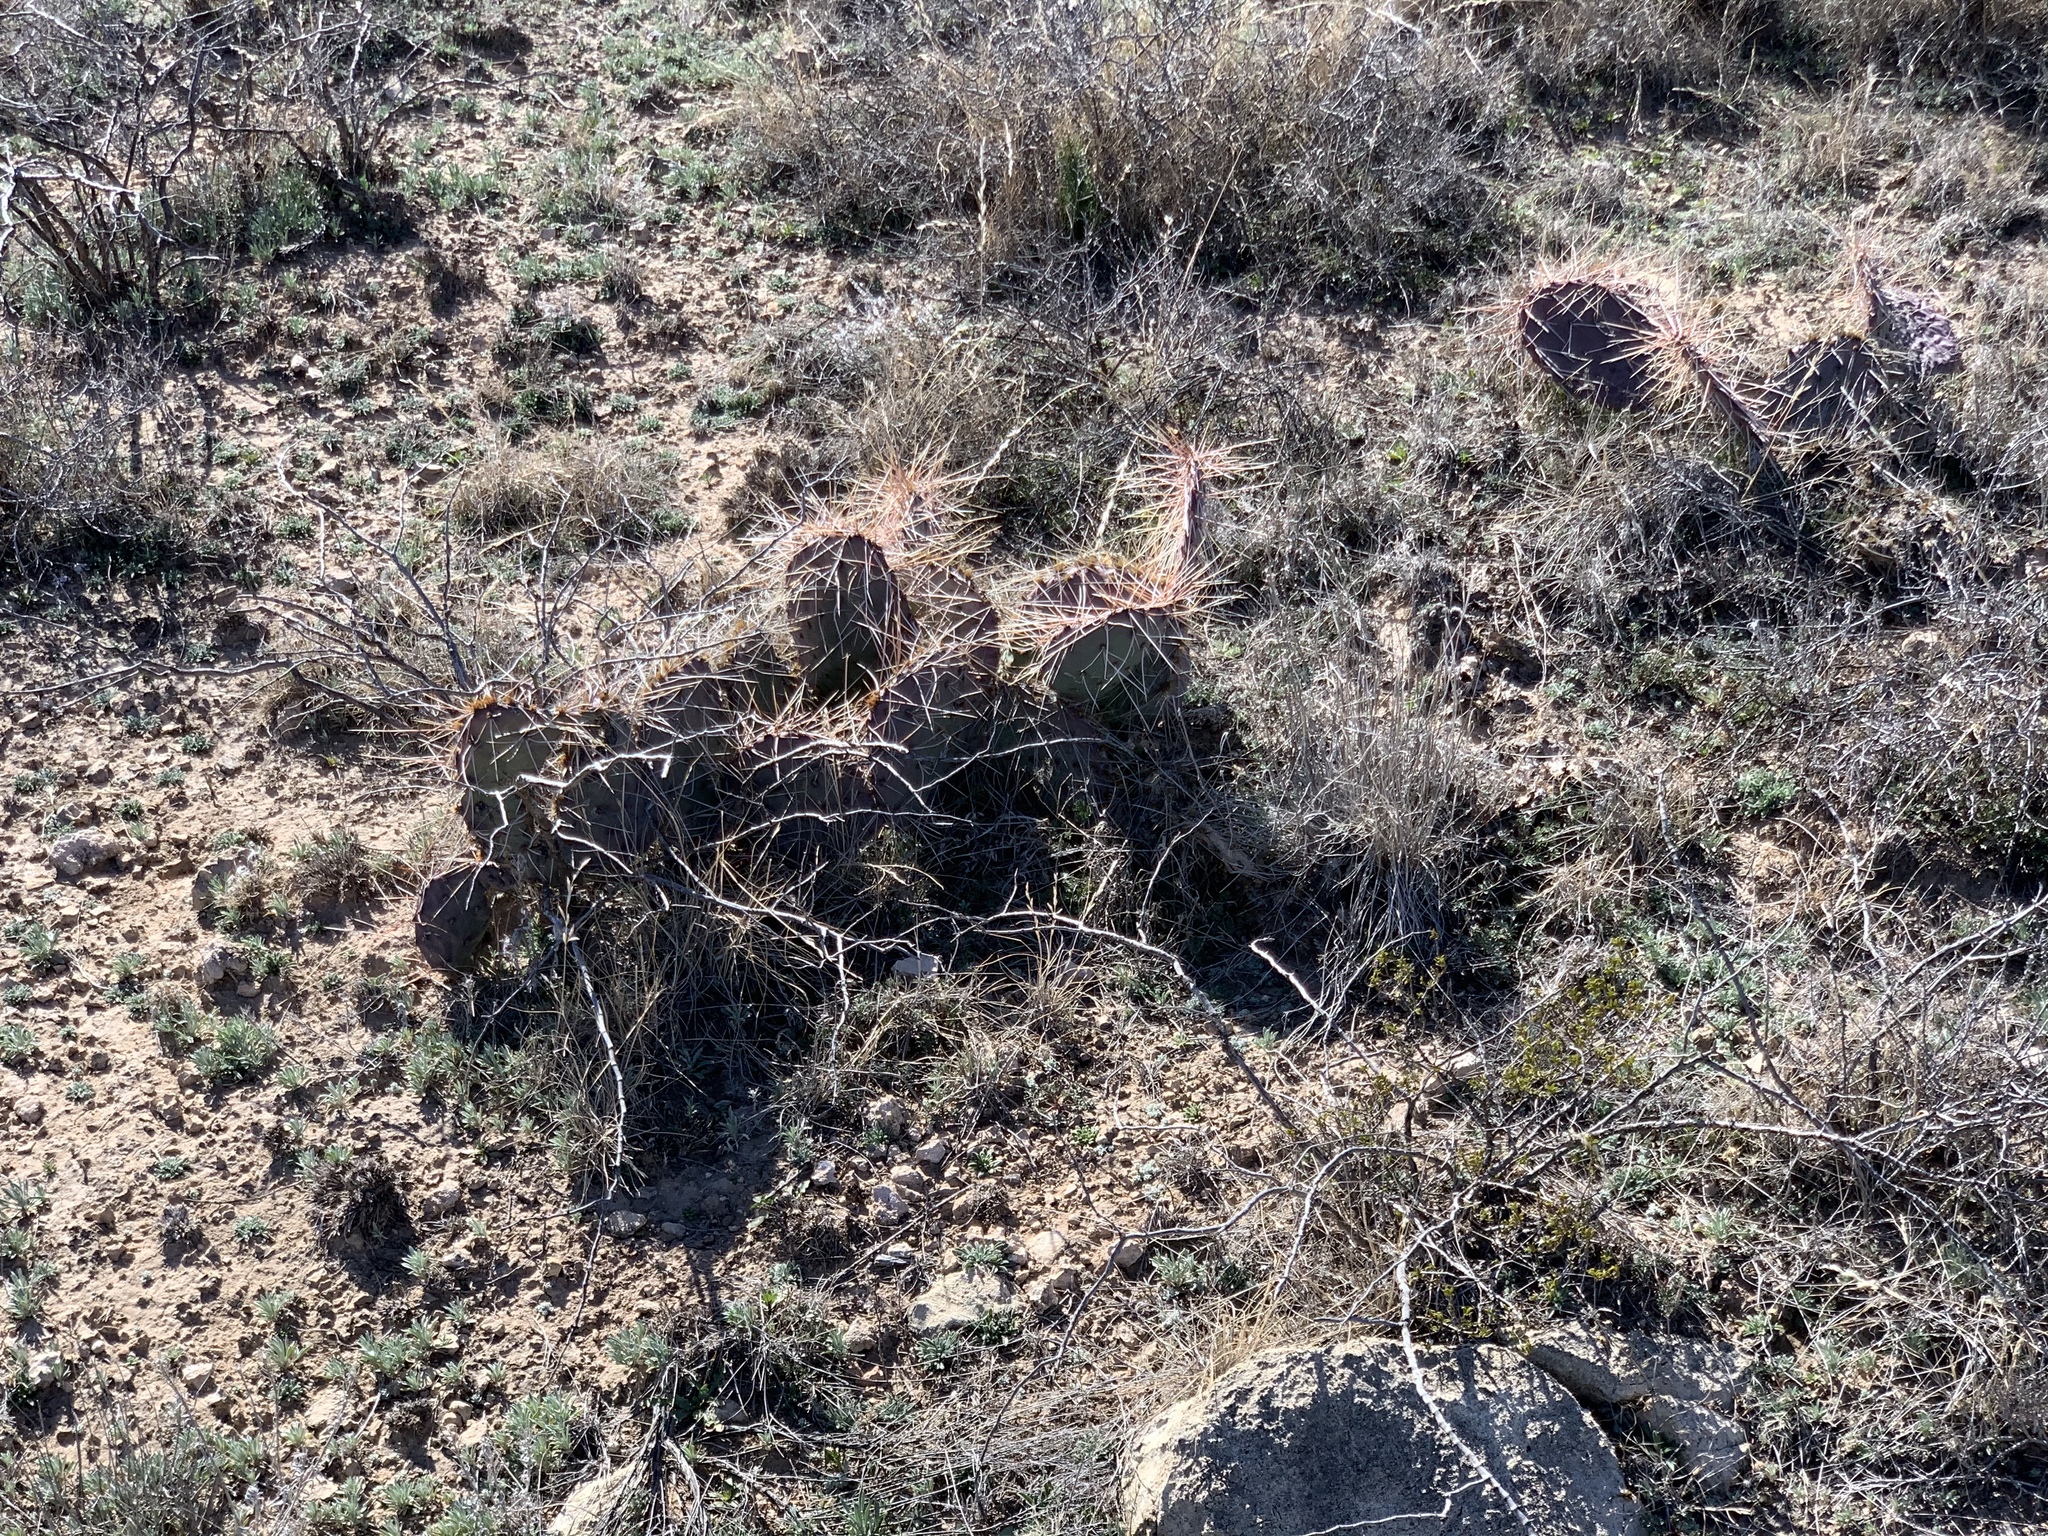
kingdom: Plantae
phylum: Tracheophyta
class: Magnoliopsida
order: Caryophyllales
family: Cactaceae
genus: Opuntia
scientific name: Opuntia macrorhiza
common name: Grassland pricklypear
